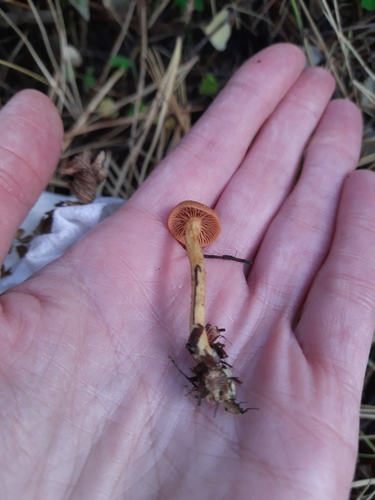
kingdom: Fungi
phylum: Basidiomycota
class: Agaricomycetes
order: Agaricales
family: Agaricaceae
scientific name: Agaricaceae
